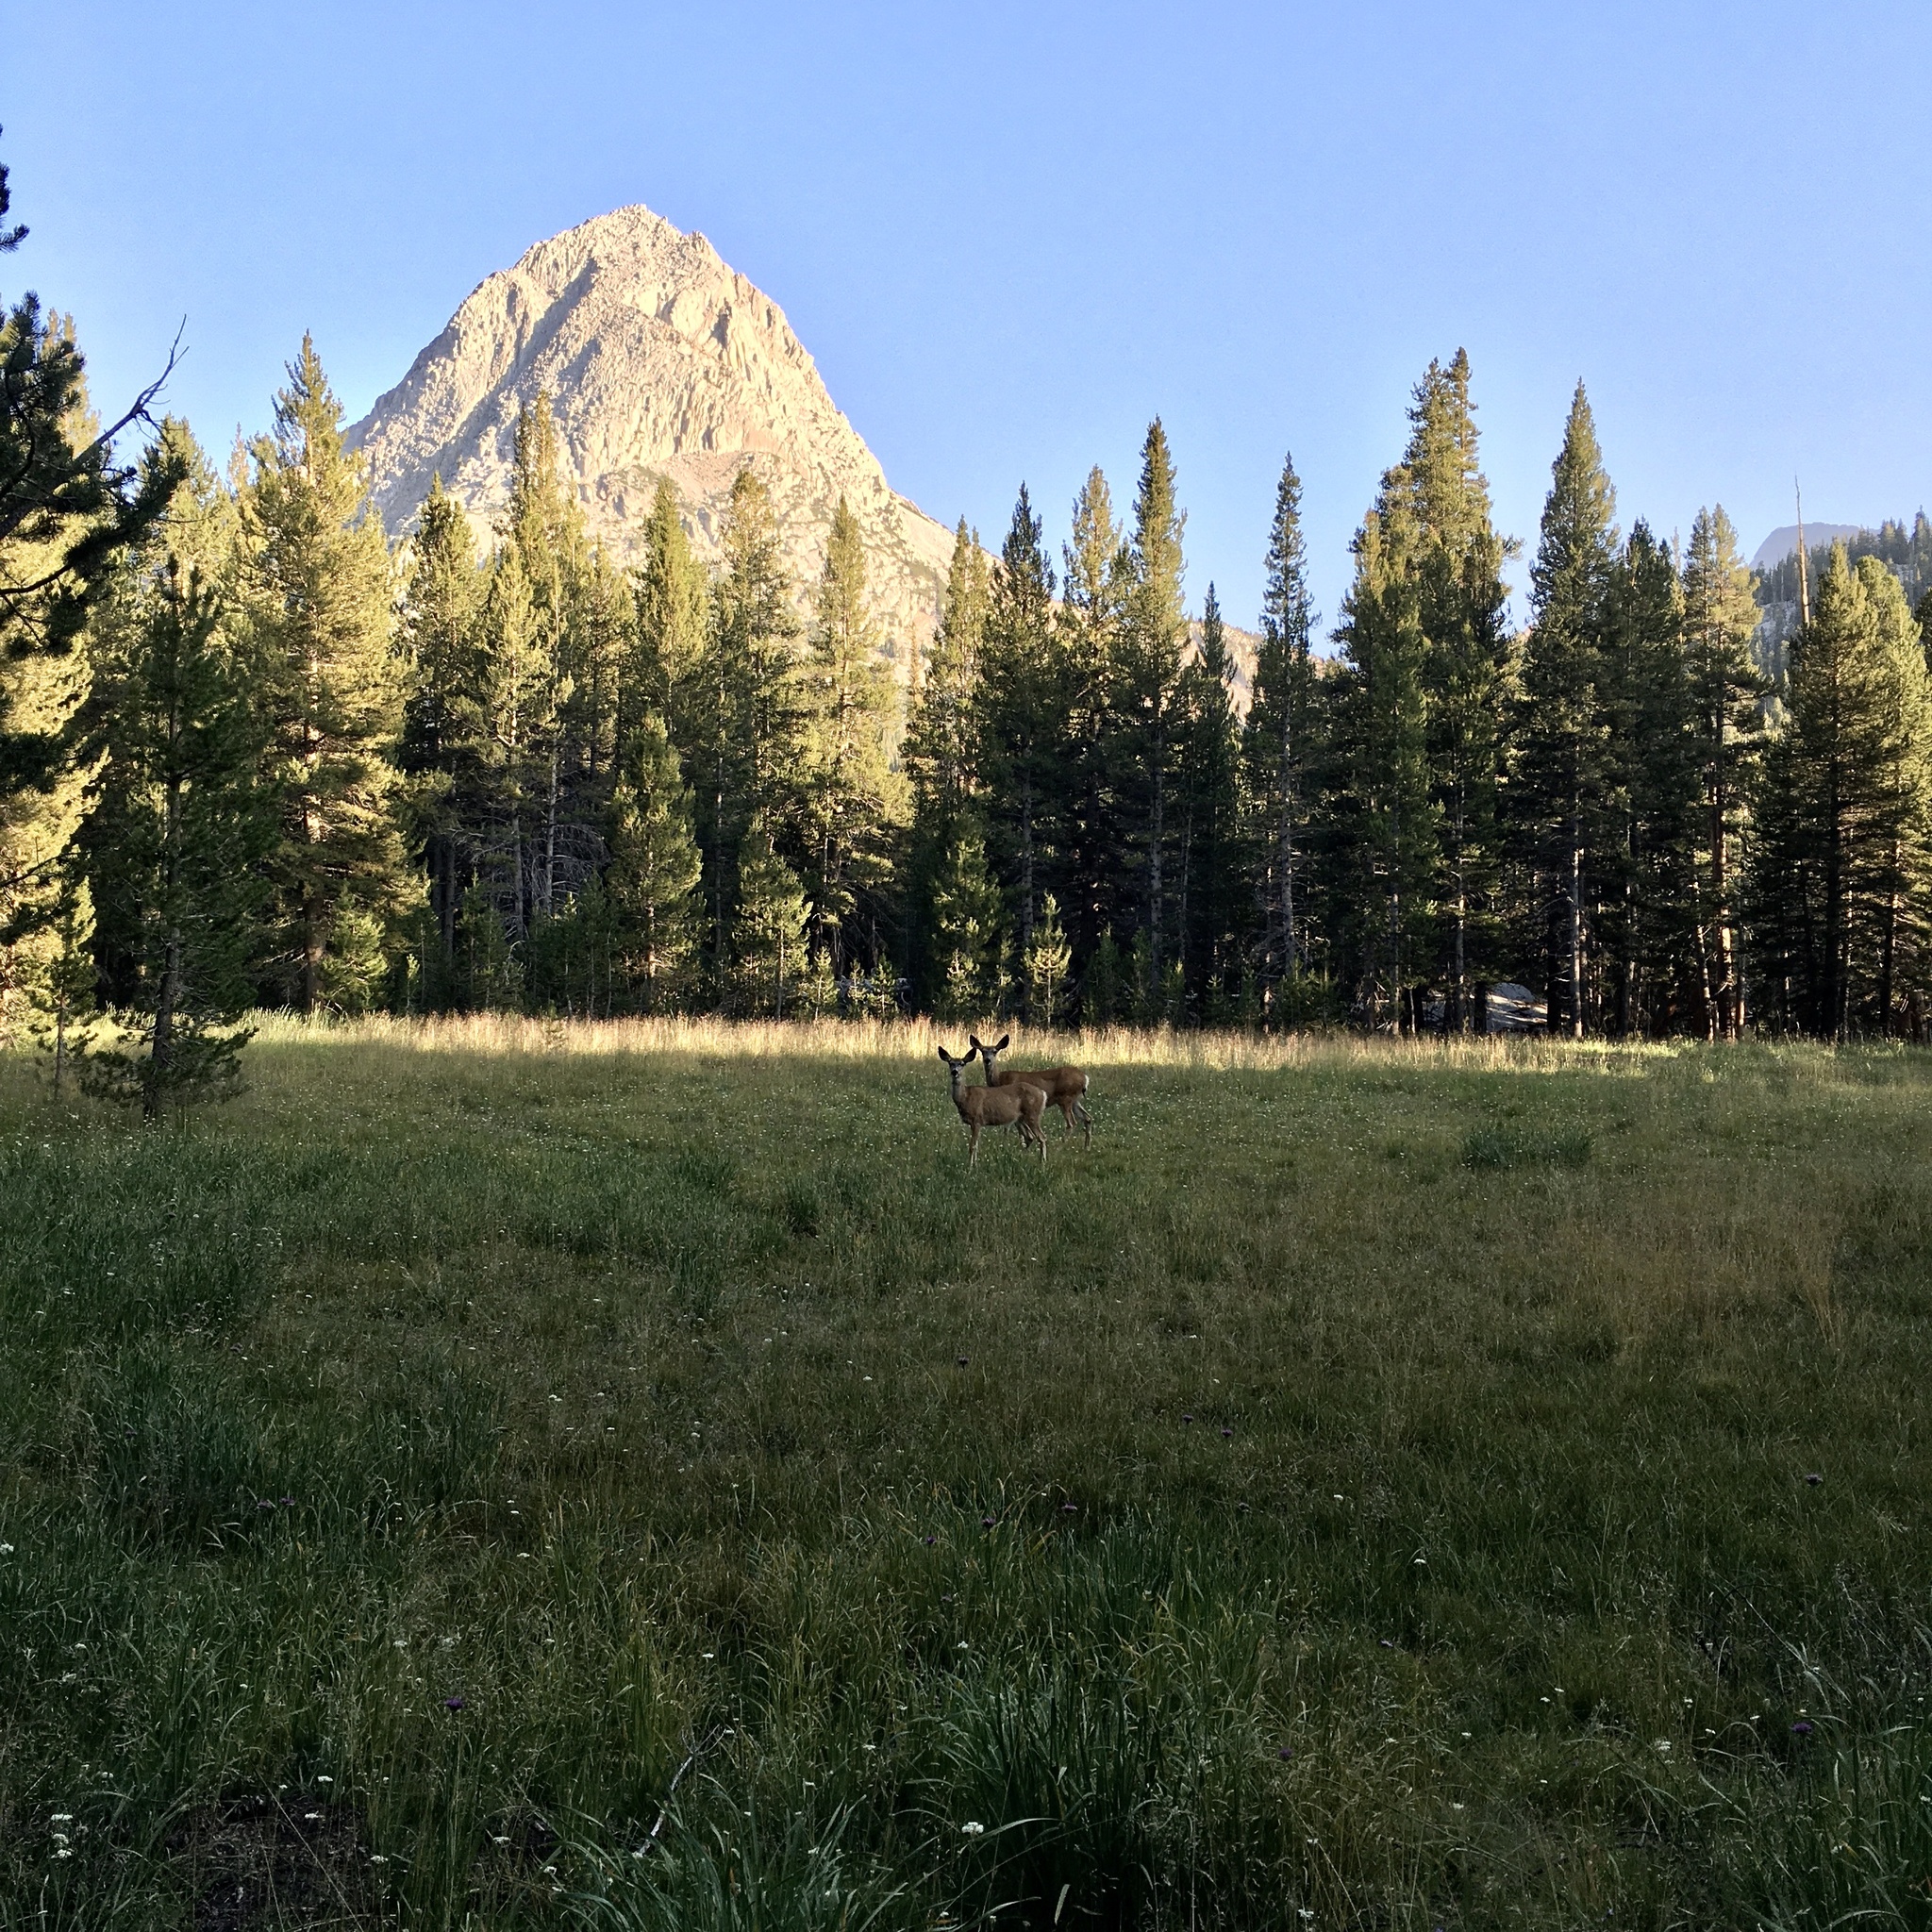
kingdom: Animalia
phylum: Chordata
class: Mammalia
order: Artiodactyla
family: Cervidae
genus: Odocoileus
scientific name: Odocoileus hemionus
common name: Mule deer
